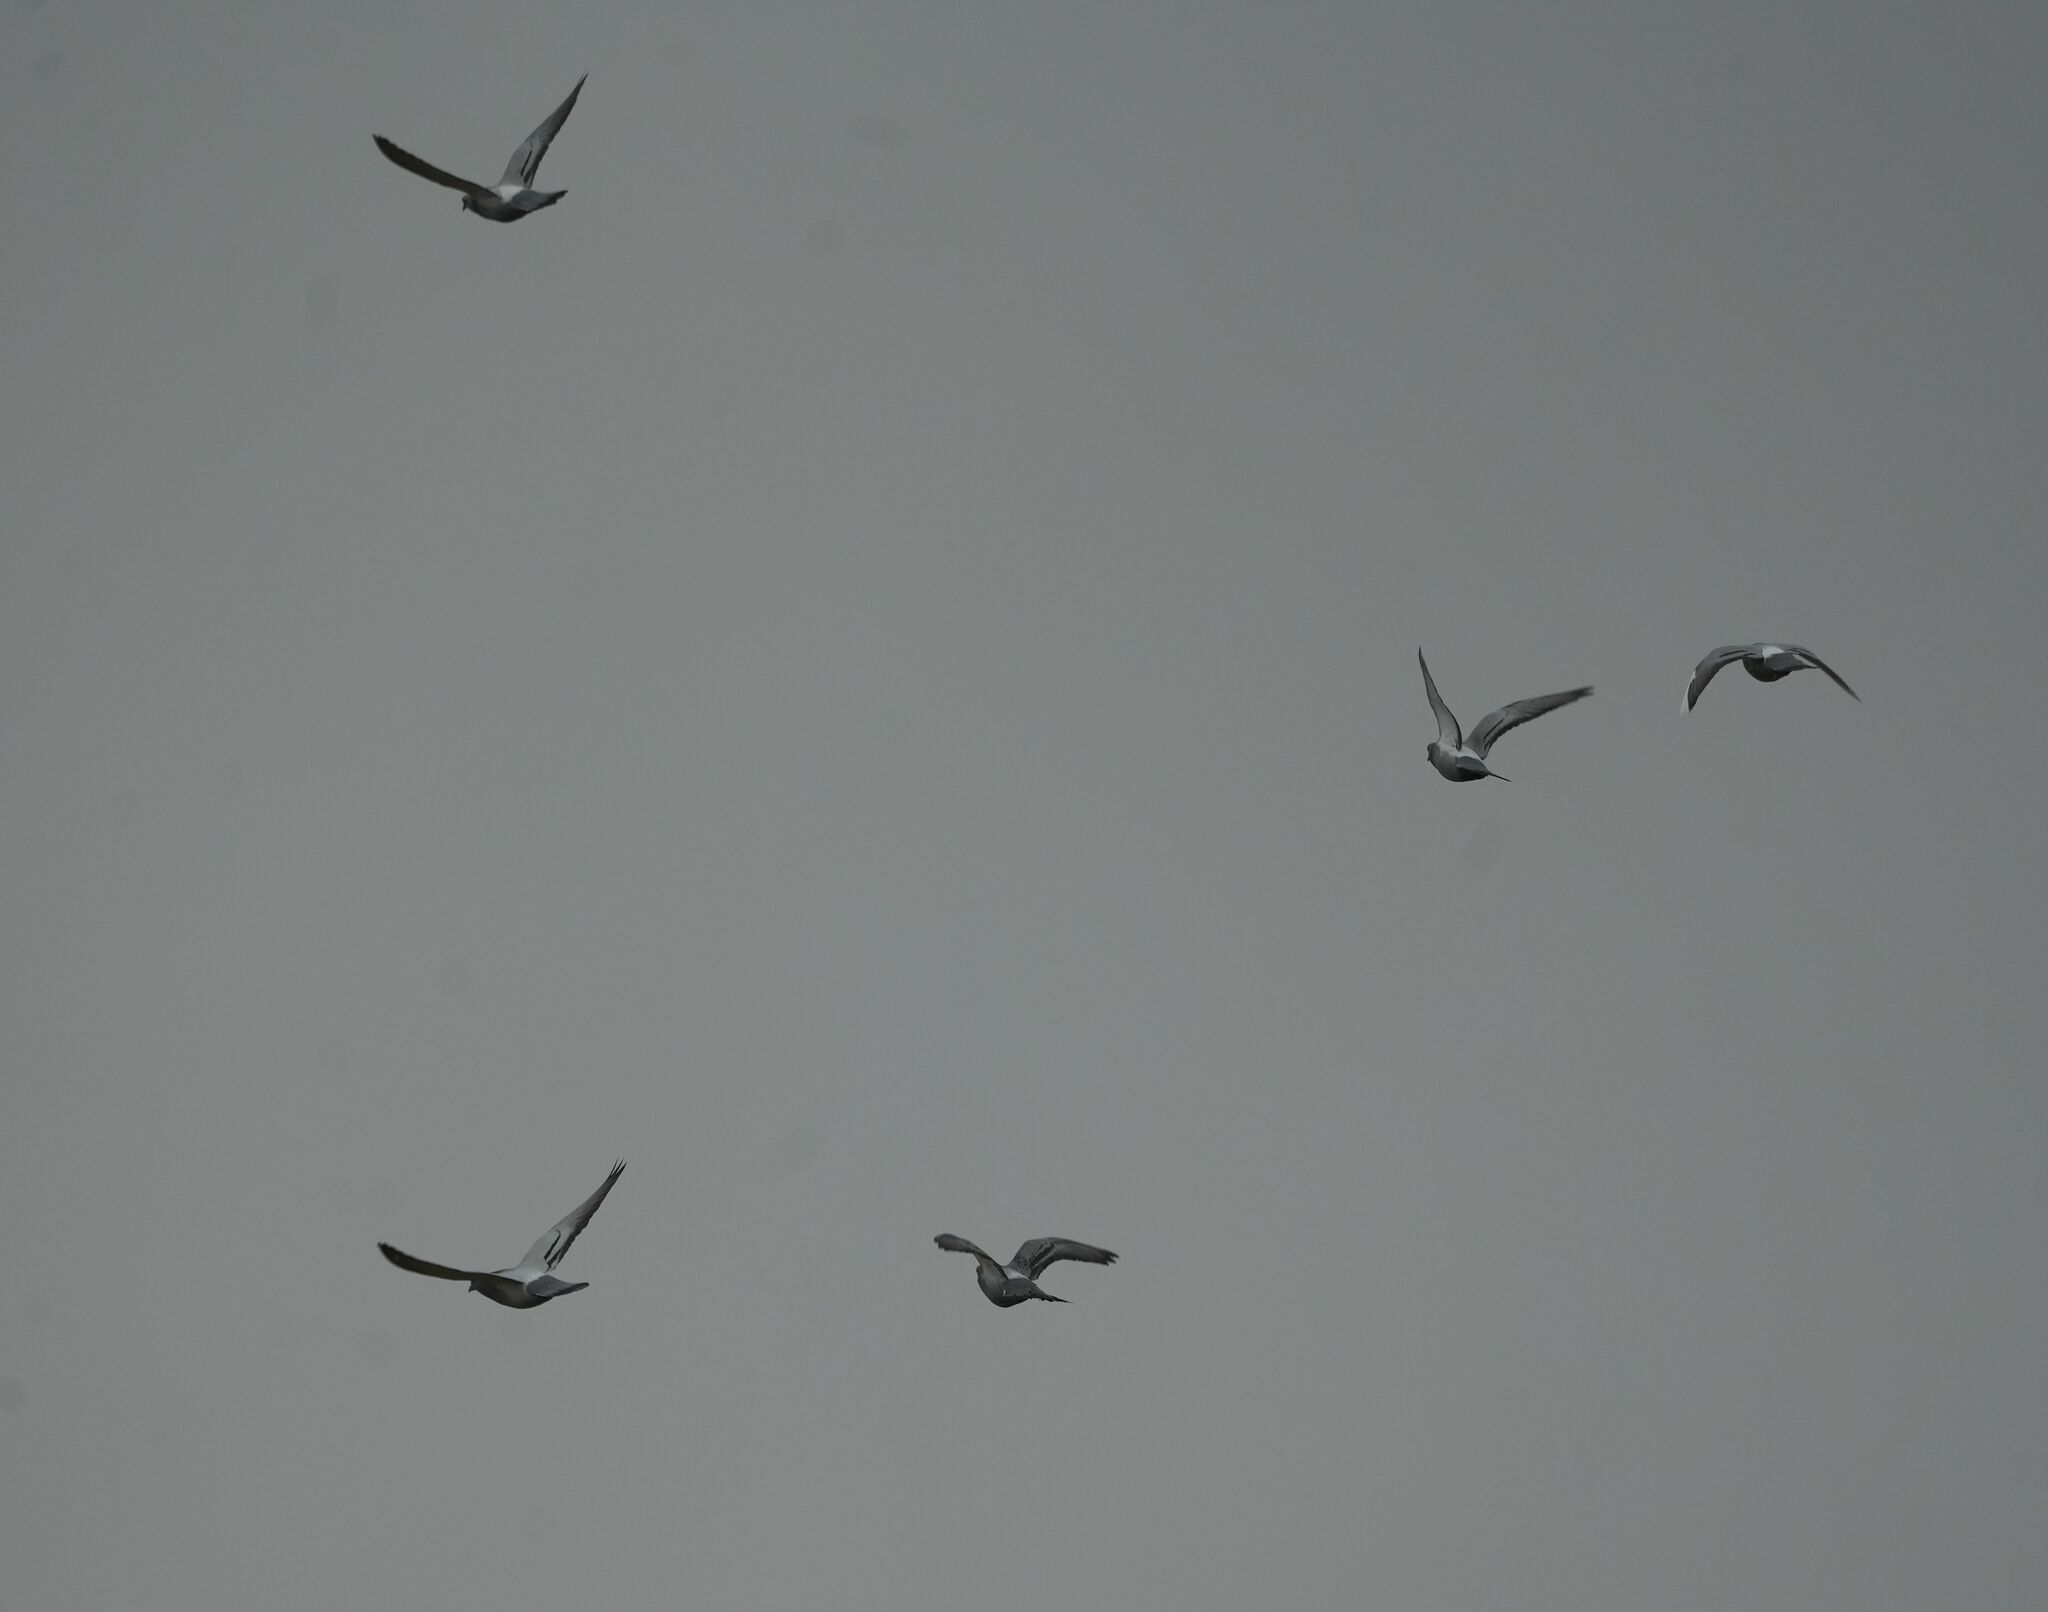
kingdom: Animalia
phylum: Chordata
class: Aves
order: Columbiformes
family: Columbidae
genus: Columba
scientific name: Columba livia
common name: Rock pigeon
